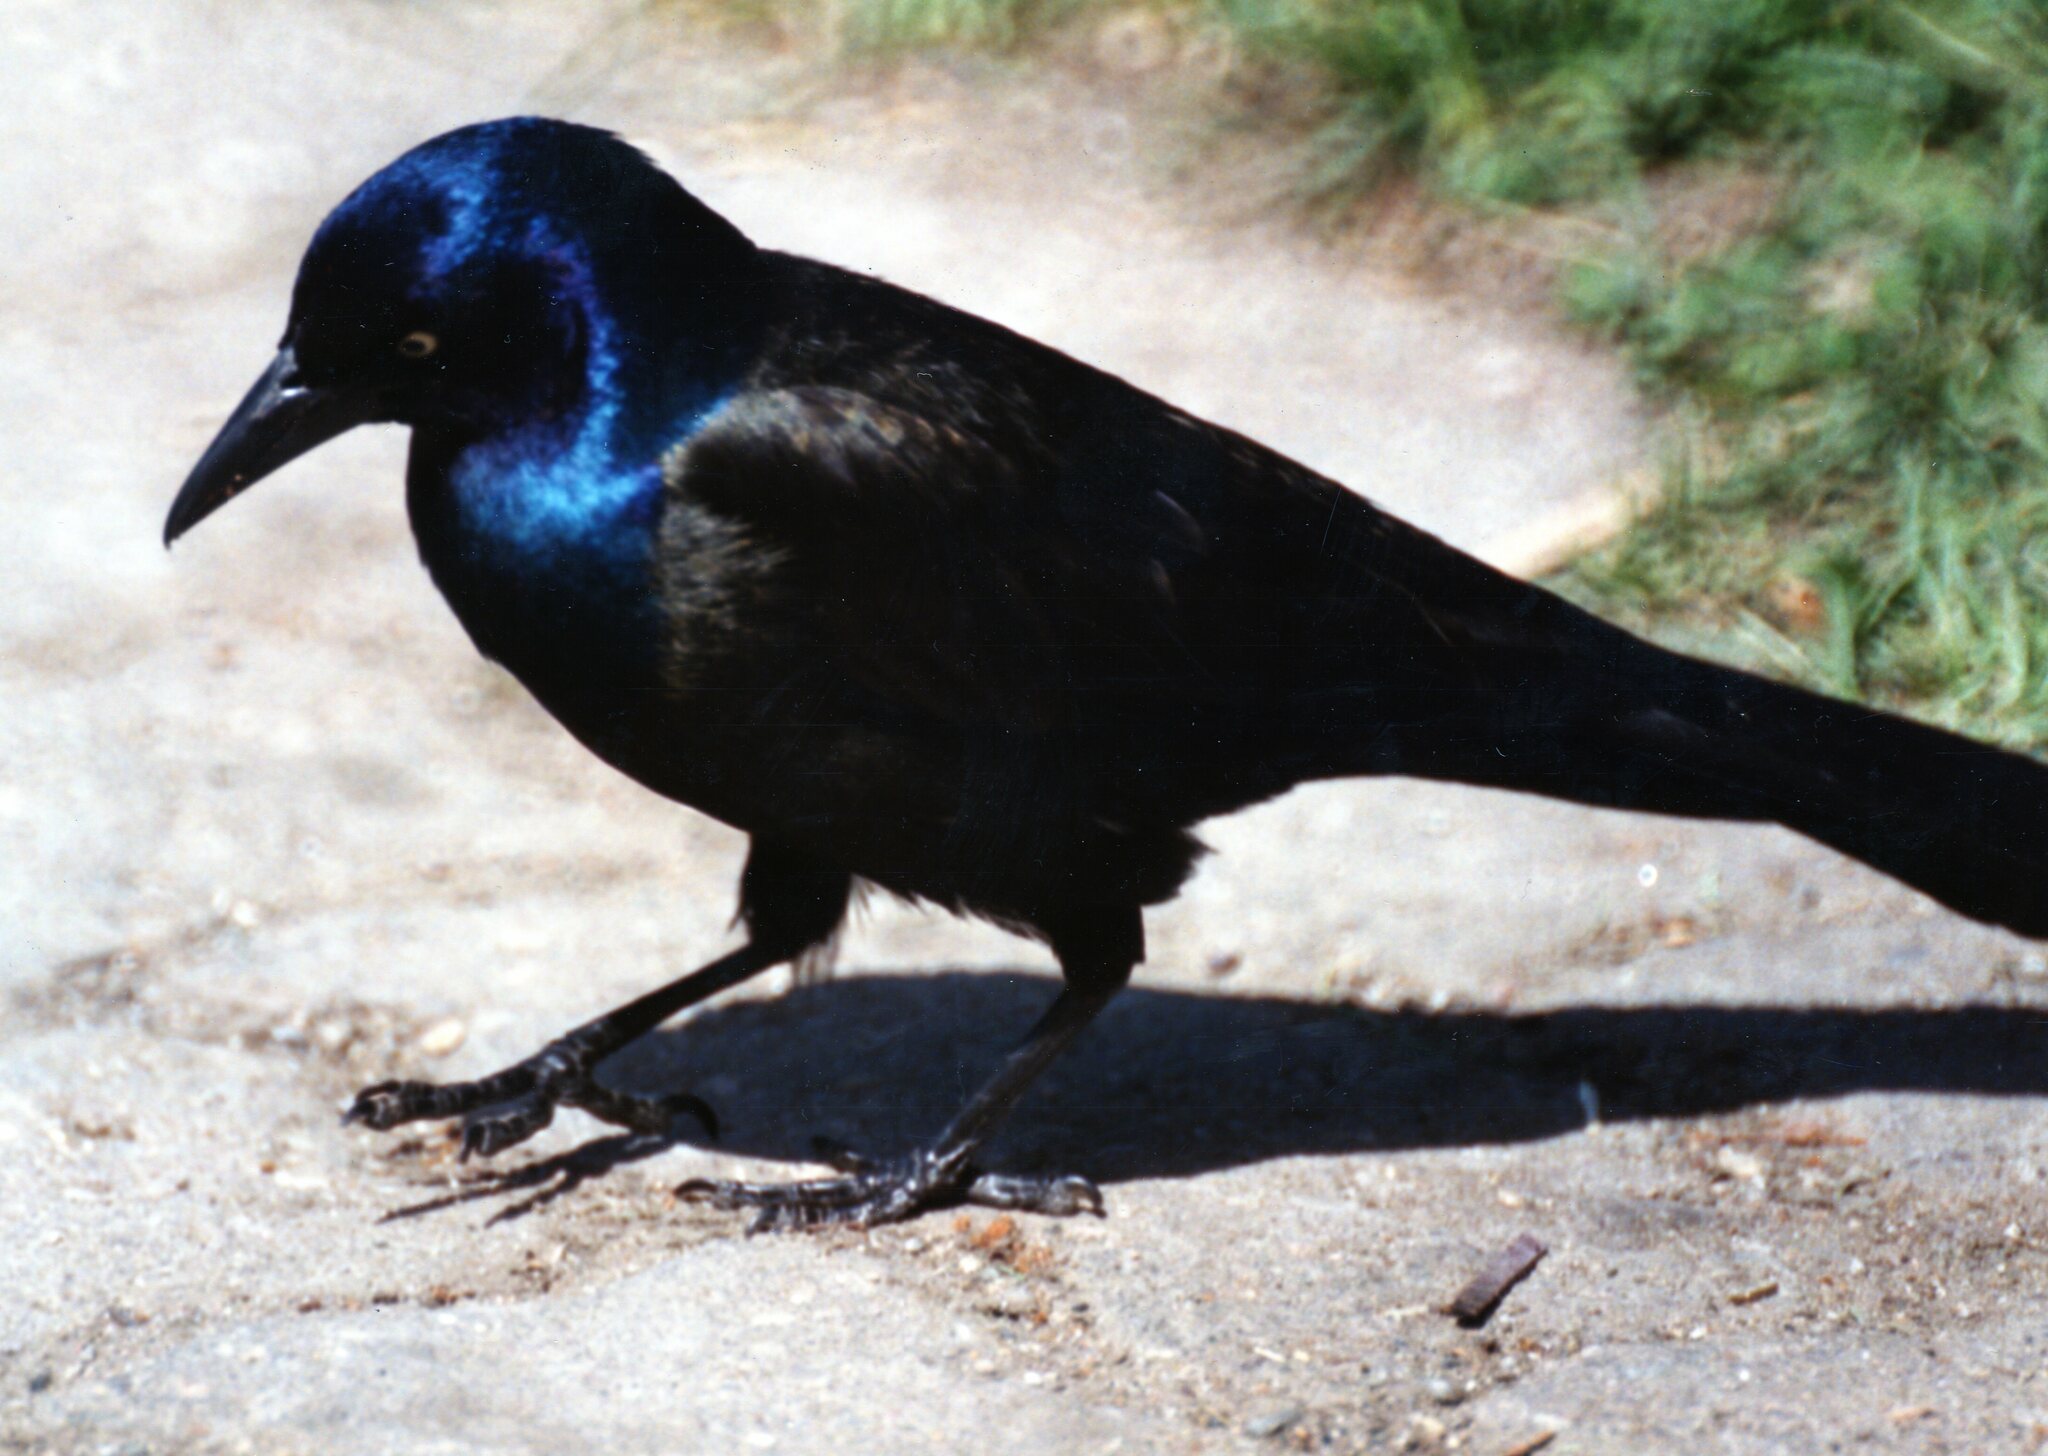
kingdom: Animalia
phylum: Chordata
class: Aves
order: Passeriformes
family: Icteridae
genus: Quiscalus
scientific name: Quiscalus quiscula
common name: Common grackle
